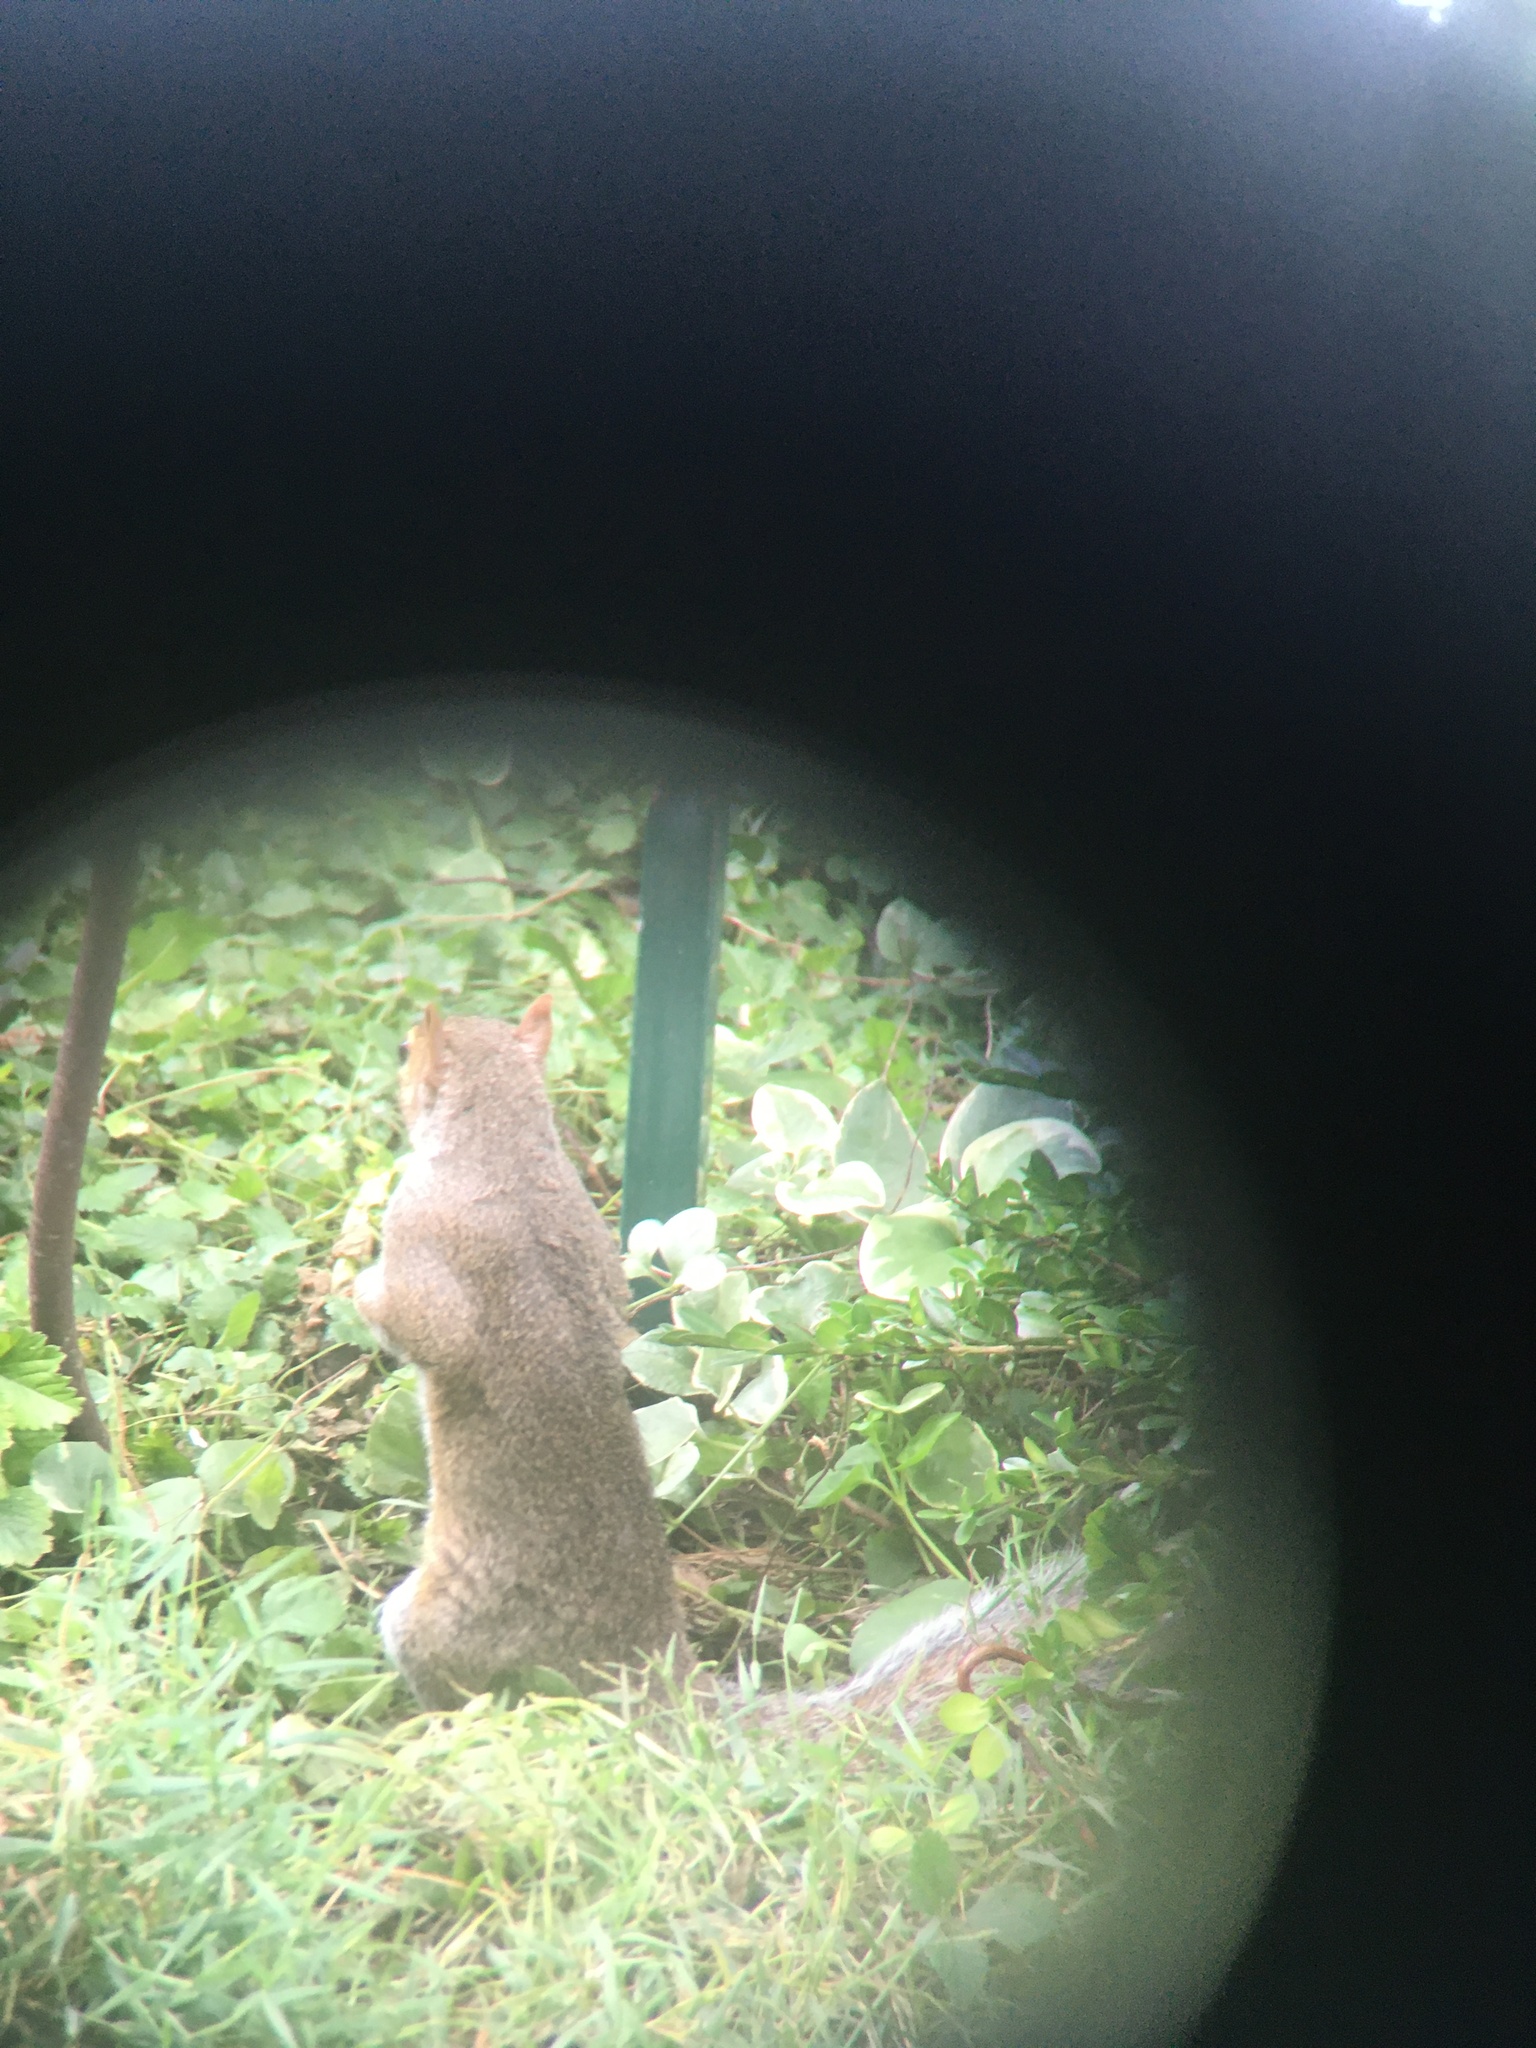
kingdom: Animalia
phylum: Chordata
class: Mammalia
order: Rodentia
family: Sciuridae
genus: Sciurus
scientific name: Sciurus carolinensis
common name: Eastern gray squirrel
